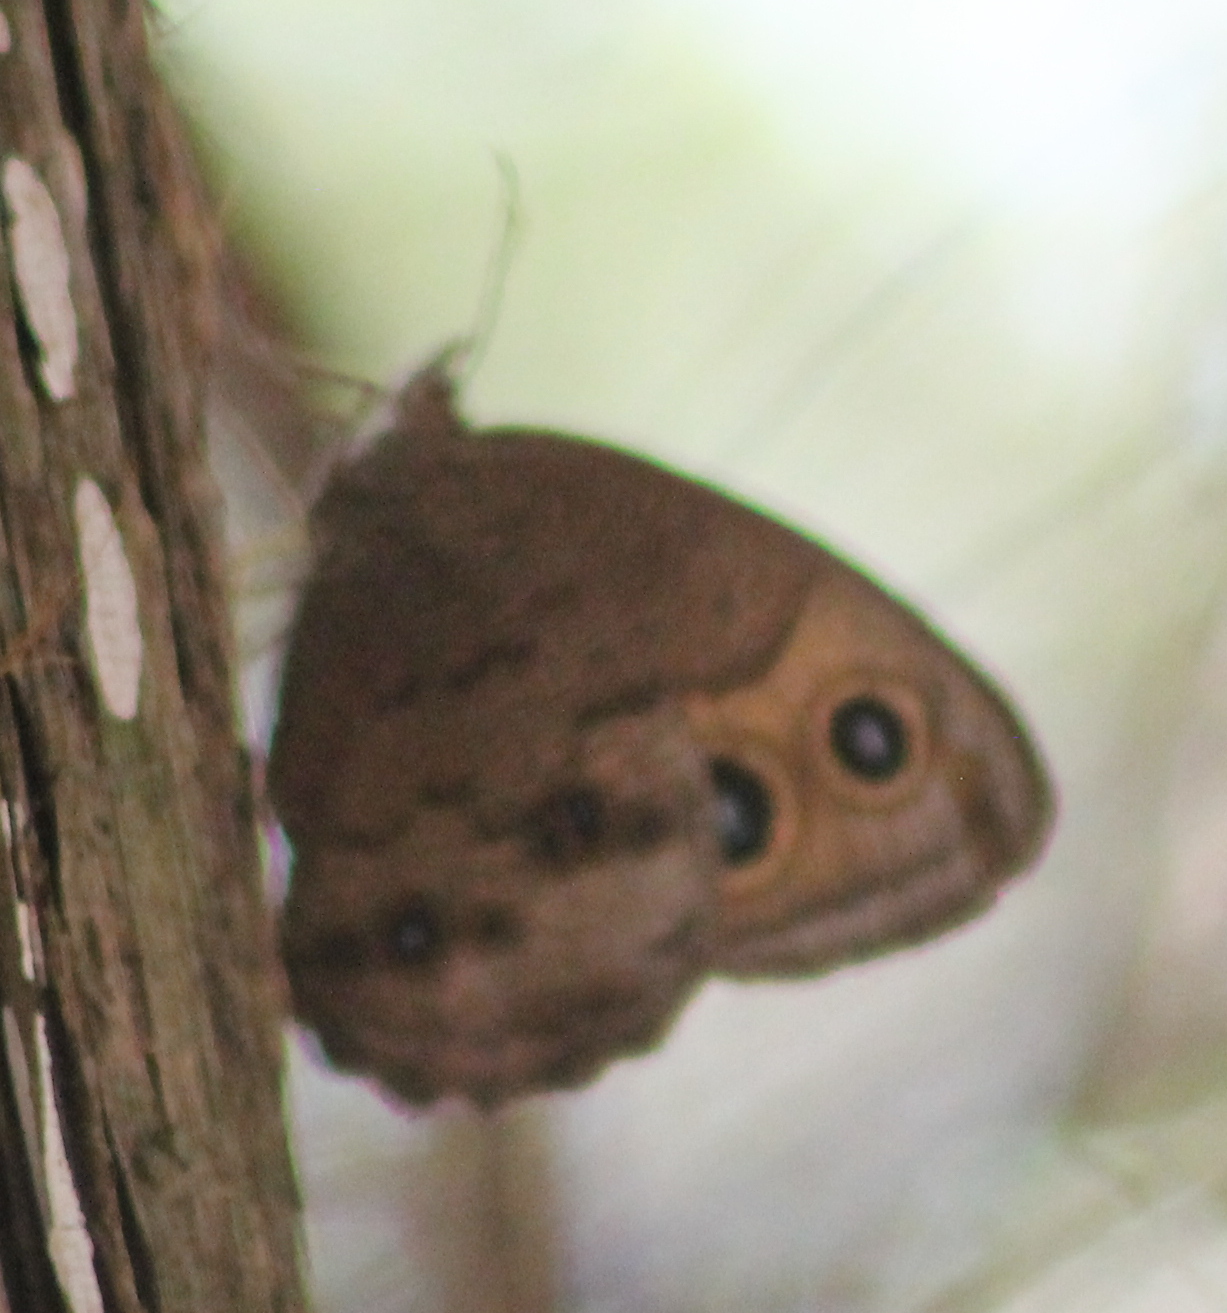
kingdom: Animalia
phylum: Arthropoda
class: Insecta
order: Lepidoptera
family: Nymphalidae
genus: Cercyonis
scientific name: Cercyonis pegala
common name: Common wood-nymph
